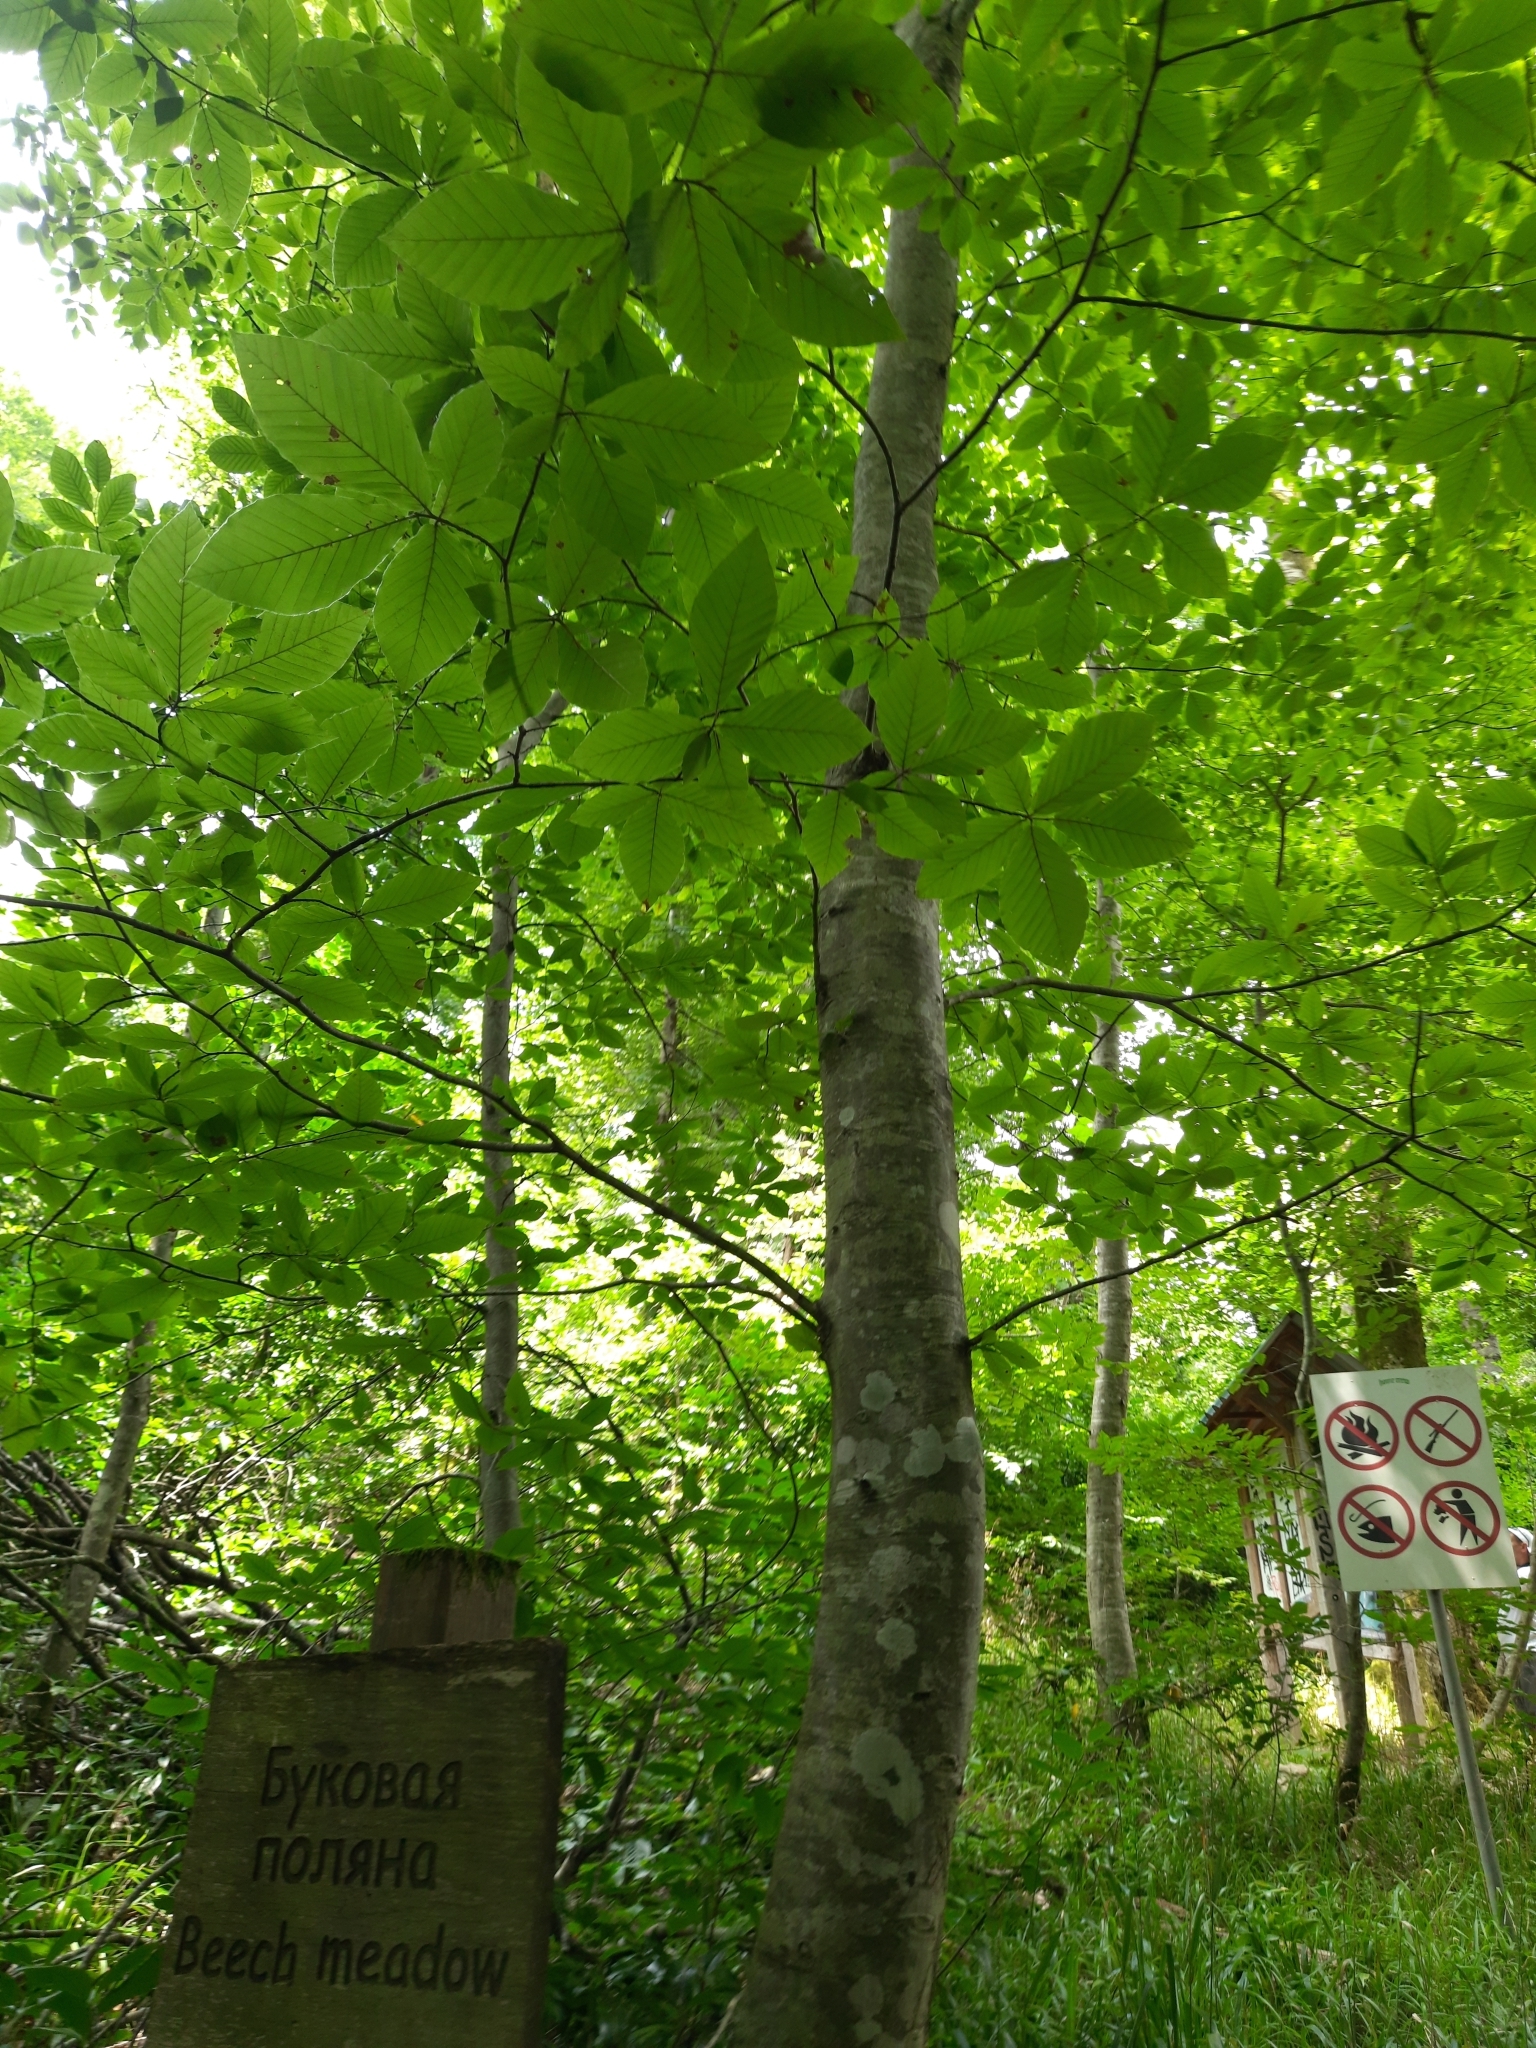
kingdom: Plantae
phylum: Tracheophyta
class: Magnoliopsida
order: Fagales
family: Fagaceae
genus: Fagus
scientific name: Fagus orientalis
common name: Oriental beech
